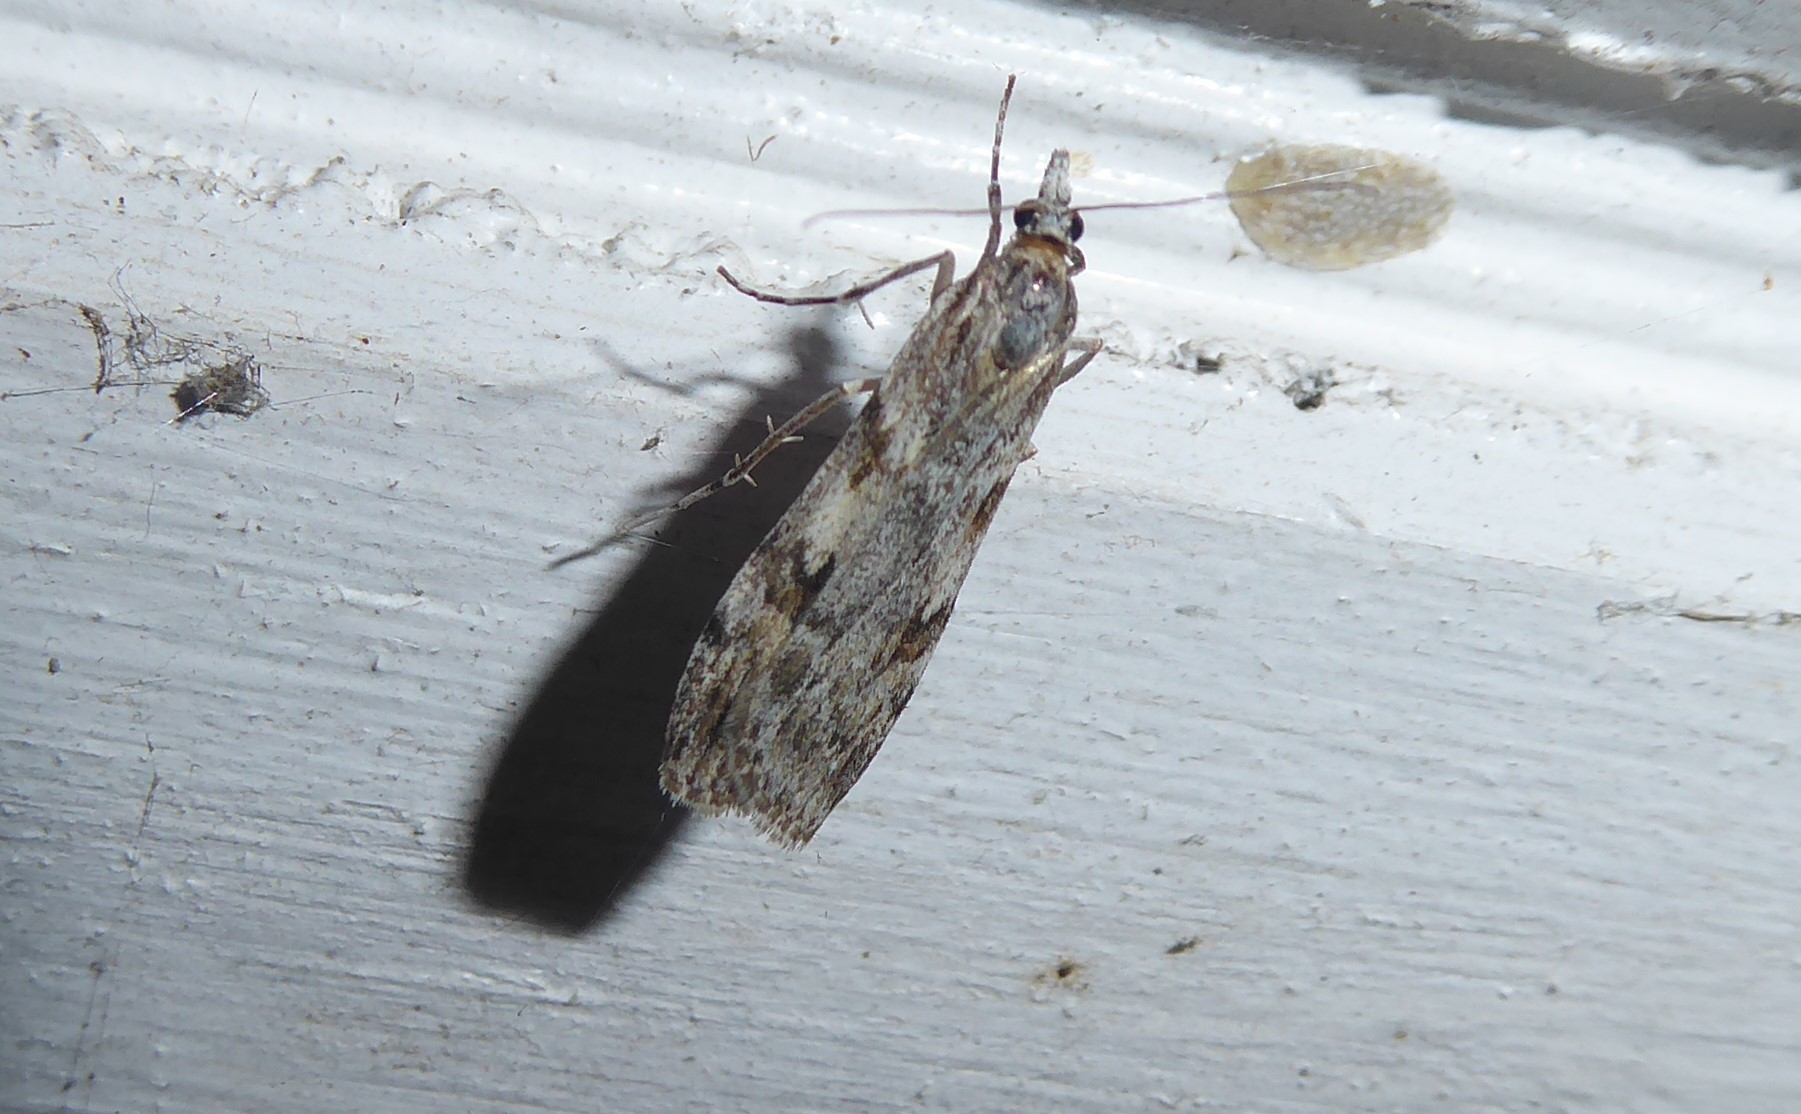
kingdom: Animalia
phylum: Arthropoda
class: Insecta
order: Lepidoptera
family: Crambidae
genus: Scoparia
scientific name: Scoparia halopis
